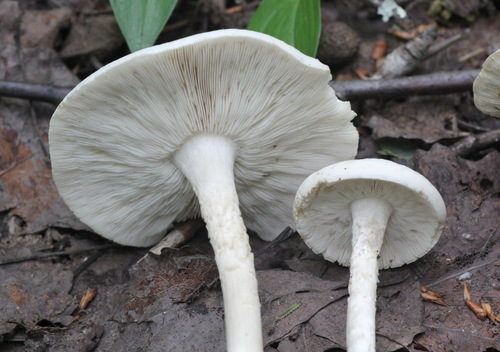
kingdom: Fungi
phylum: Basidiomycota
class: Agaricomycetes
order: Agaricales
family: Tricholomataceae
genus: Melanoleuca
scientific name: Melanoleuca strictipes
